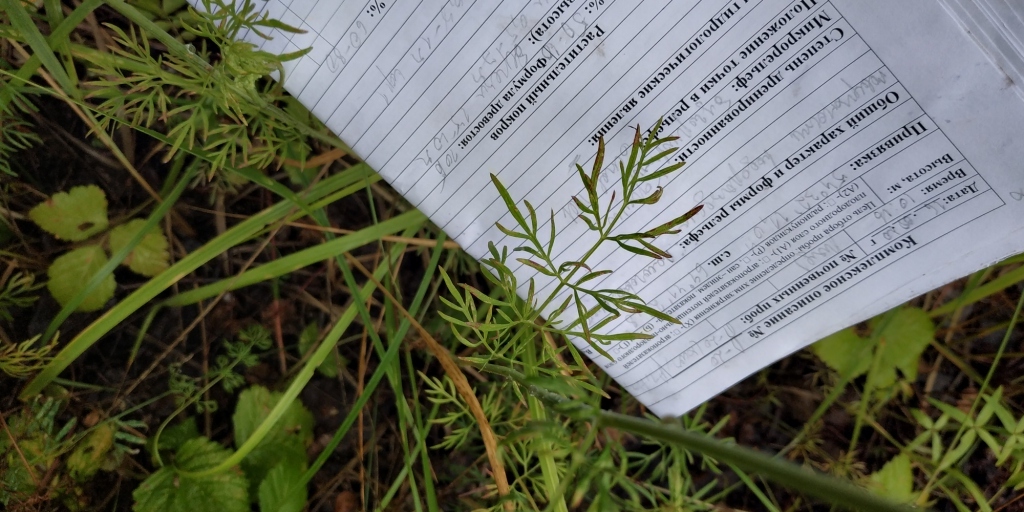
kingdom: Plantae
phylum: Tracheophyta
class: Magnoliopsida
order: Apiales
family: Apiaceae
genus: Kadenia
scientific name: Kadenia dubia
